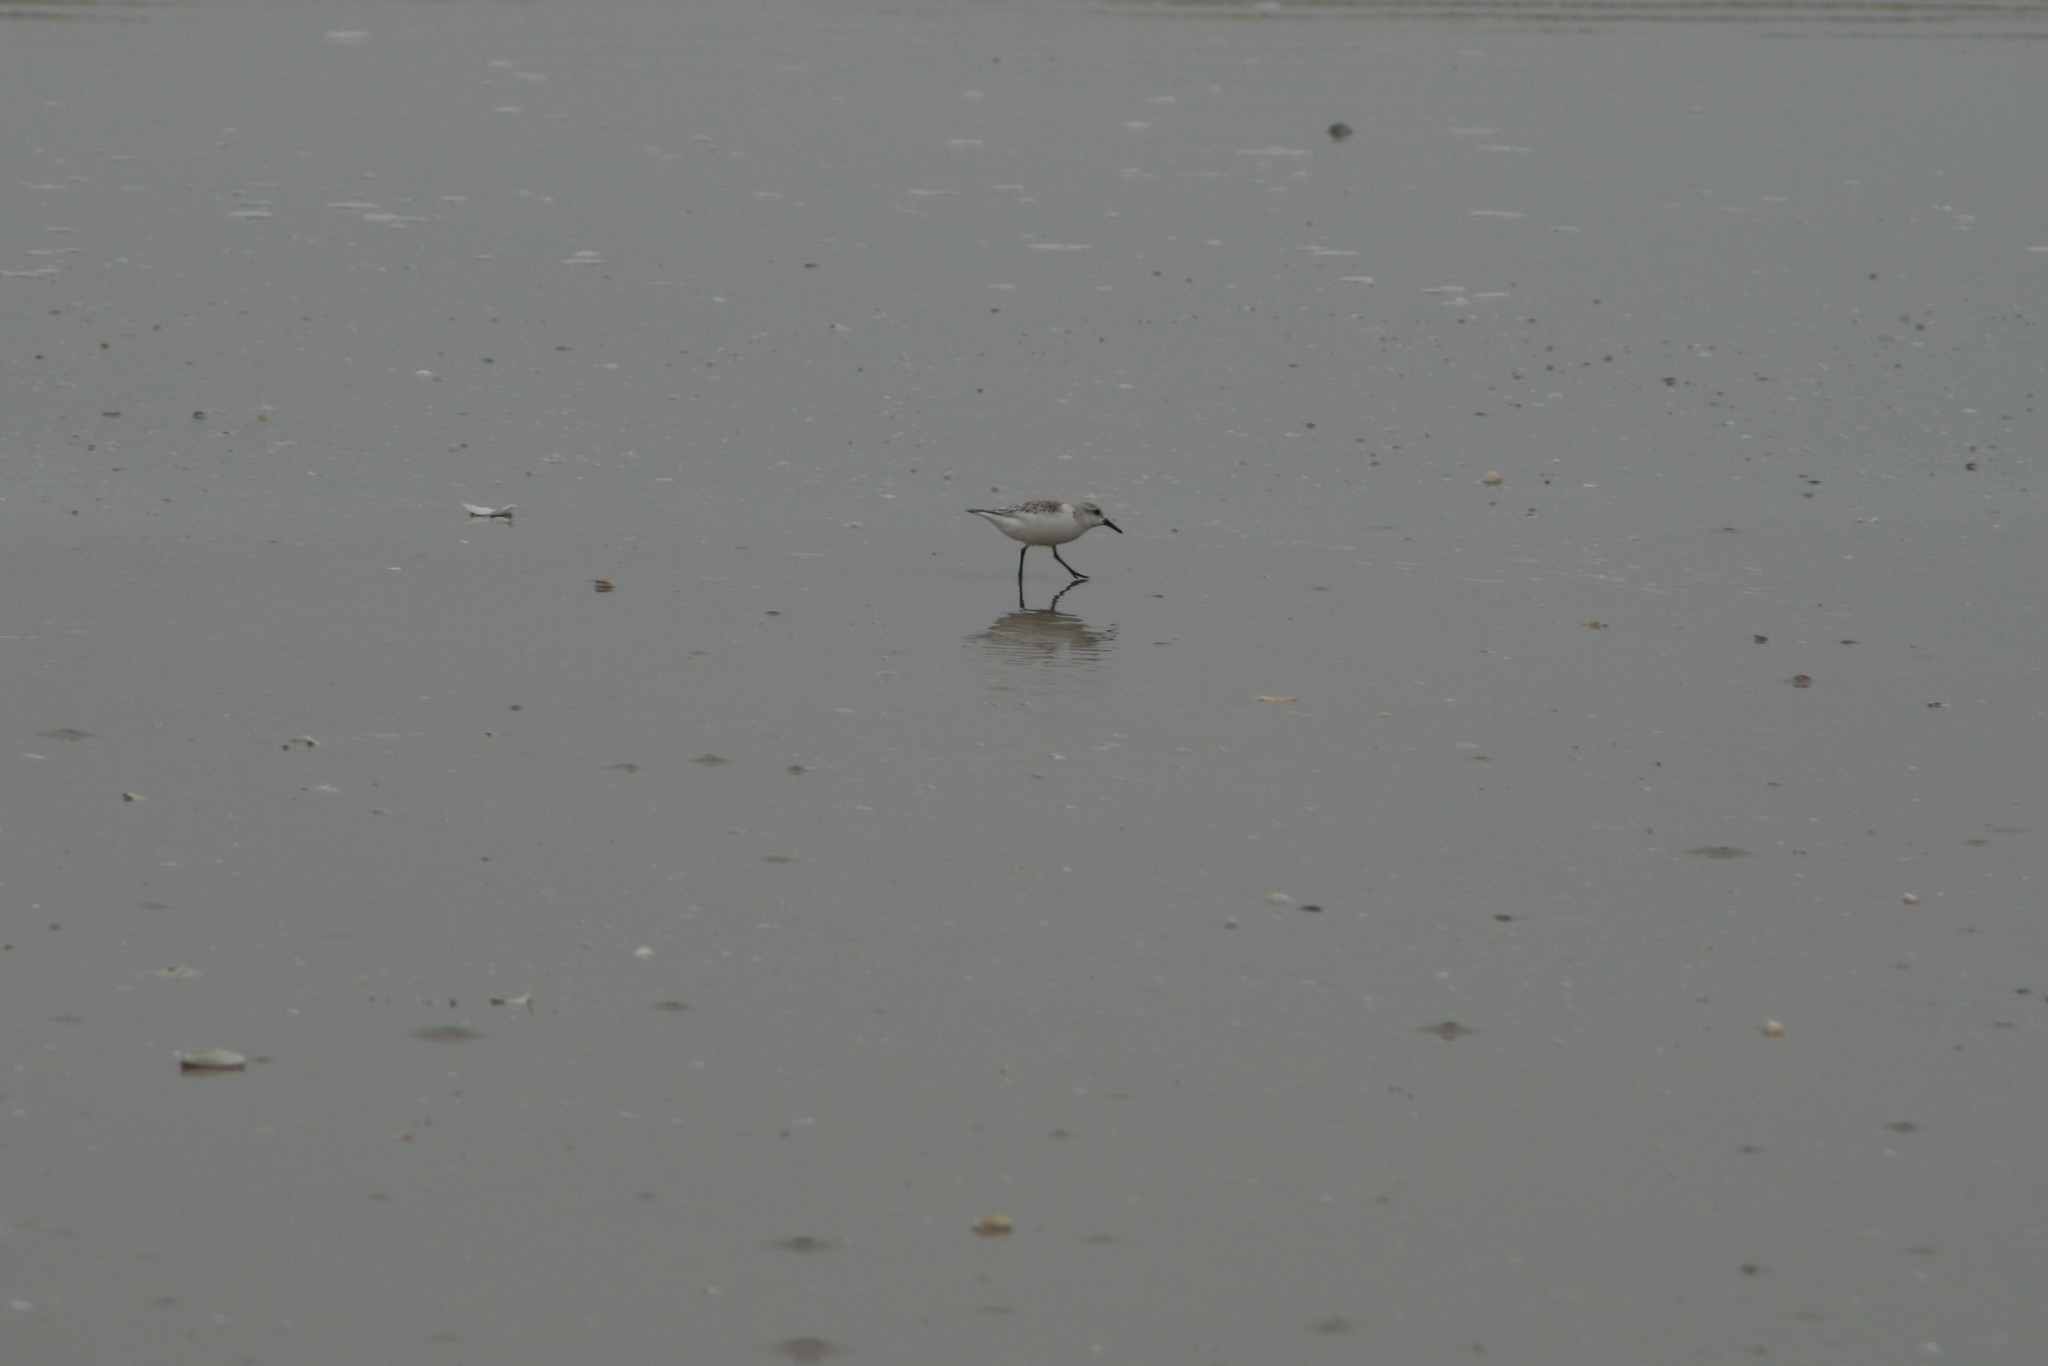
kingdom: Animalia
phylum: Chordata
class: Aves
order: Charadriiformes
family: Scolopacidae
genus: Calidris
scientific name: Calidris alba
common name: Sanderling
